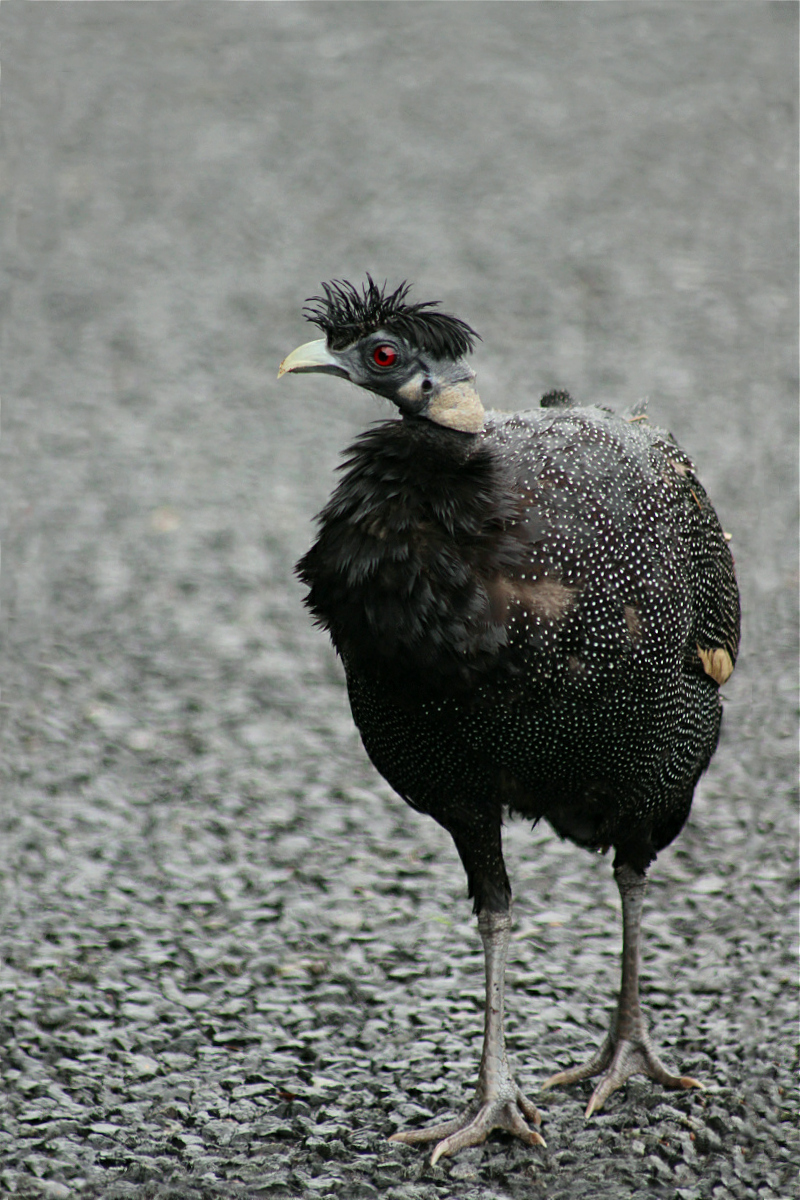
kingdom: Animalia
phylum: Chordata
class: Aves
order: Galliformes
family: Numididae
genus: Guttera
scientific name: Guttera pucherani
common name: Crested guineafowl
